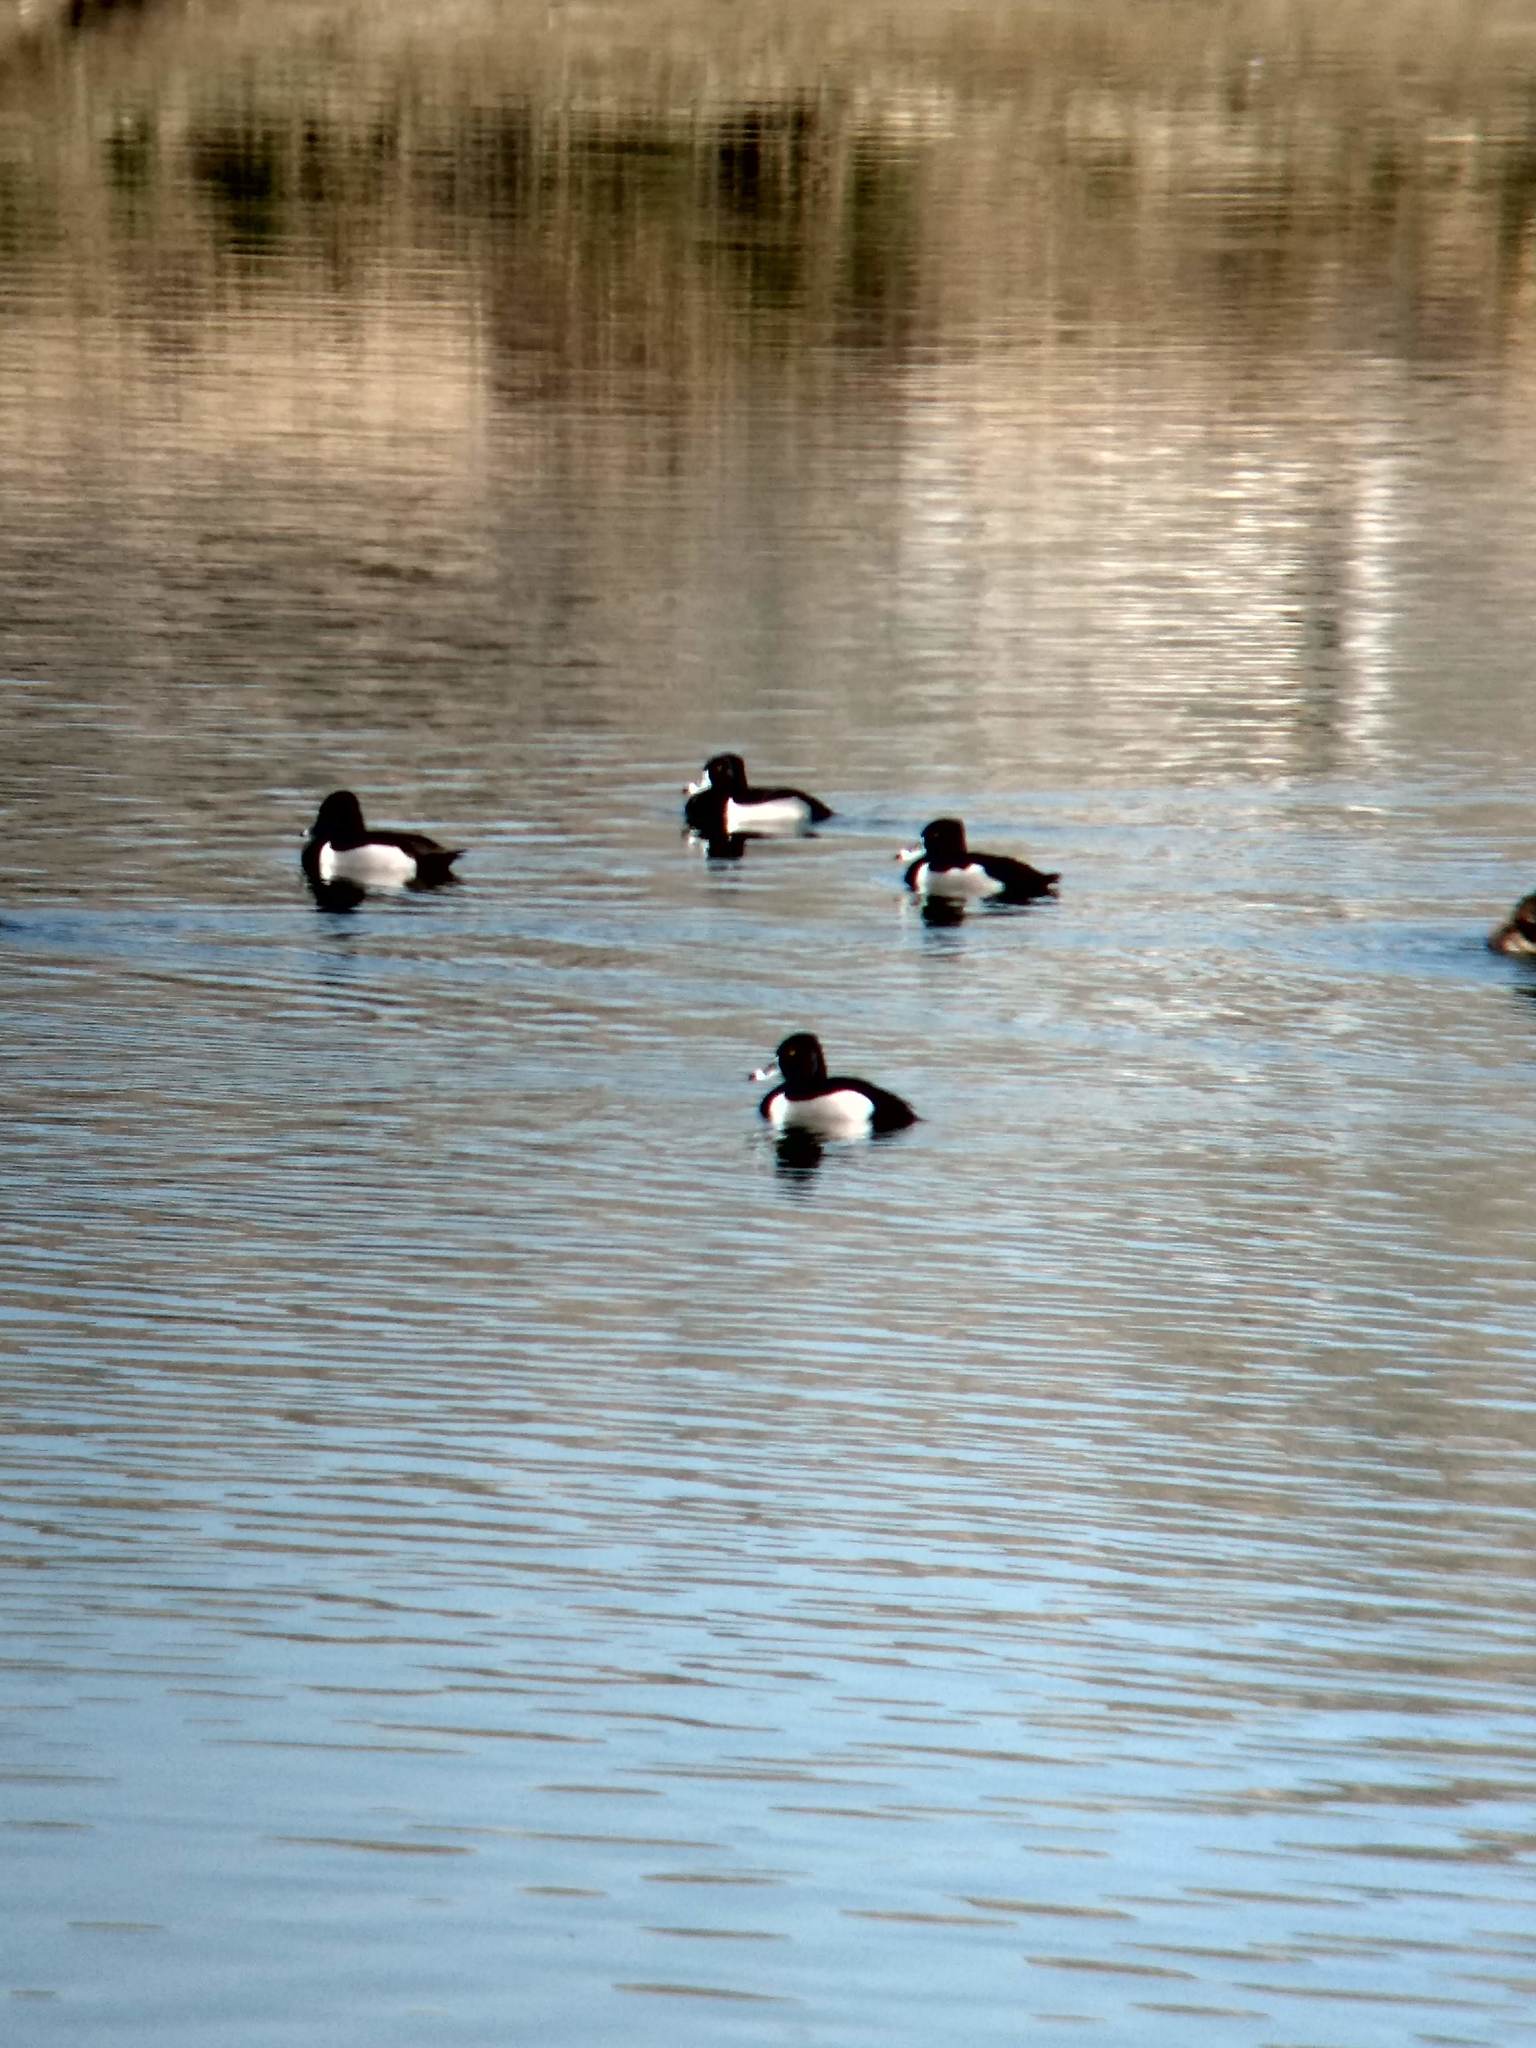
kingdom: Animalia
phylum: Chordata
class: Aves
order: Anseriformes
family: Anatidae
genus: Aythya
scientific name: Aythya collaris
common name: Ring-necked duck
